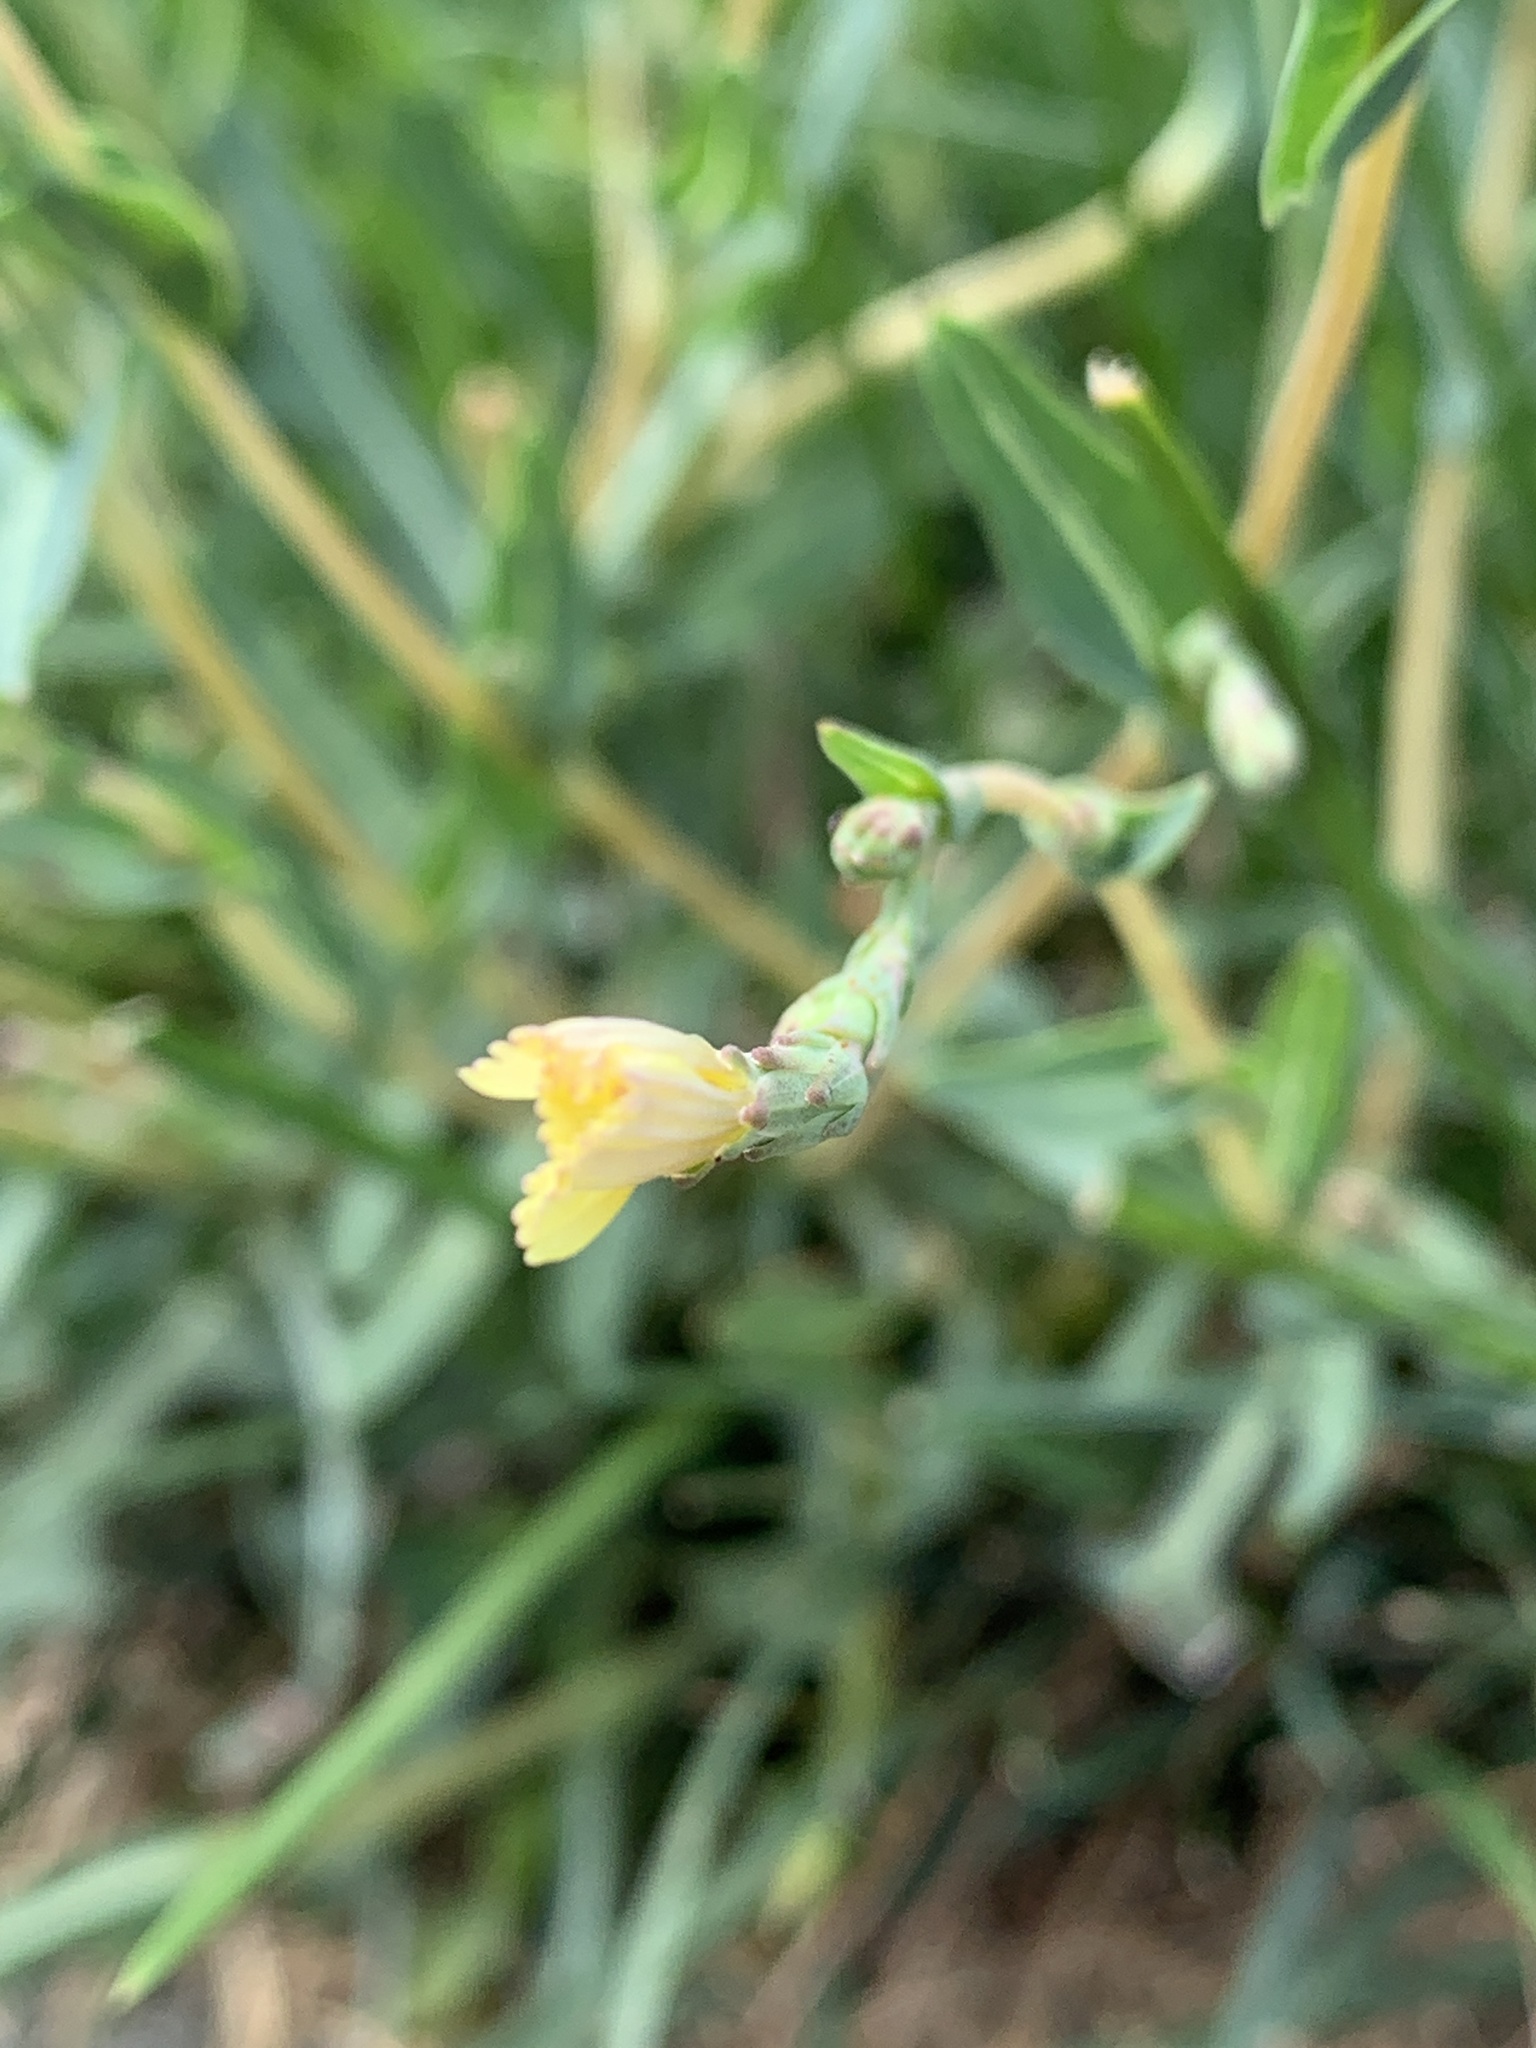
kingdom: Plantae
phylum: Tracheophyta
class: Magnoliopsida
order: Asterales
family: Asteraceae
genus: Lactuca
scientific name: Lactuca serriola
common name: Prickly lettuce
